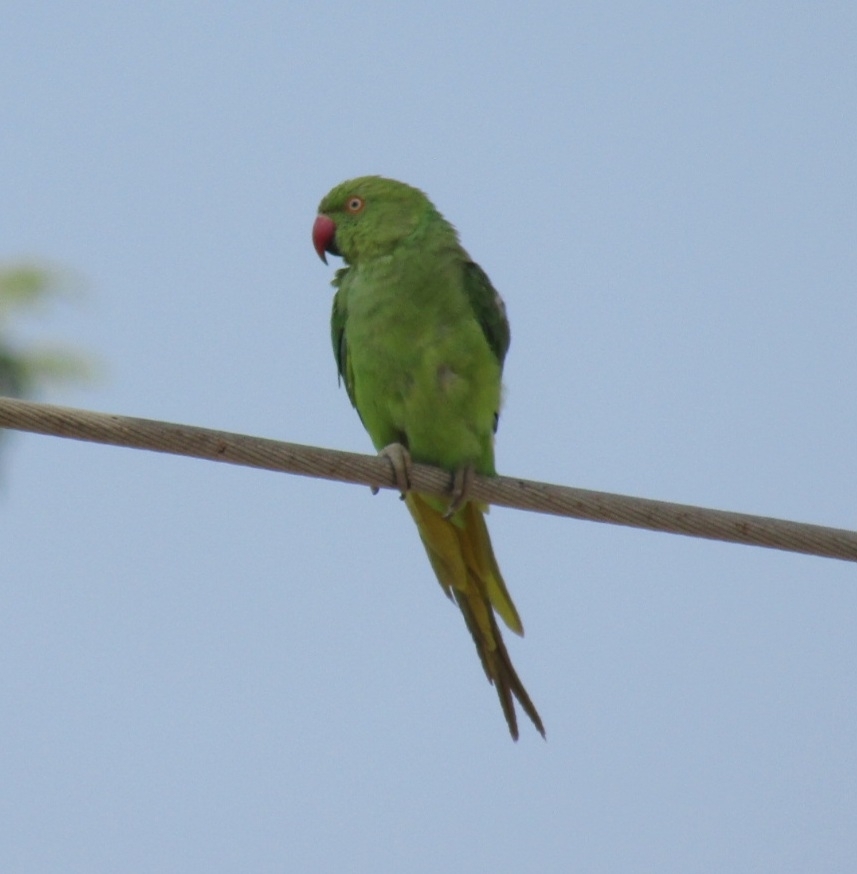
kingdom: Animalia
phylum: Chordata
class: Aves
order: Psittaciformes
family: Psittacidae
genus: Psittacula
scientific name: Psittacula krameri
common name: Rose-ringed parakeet
